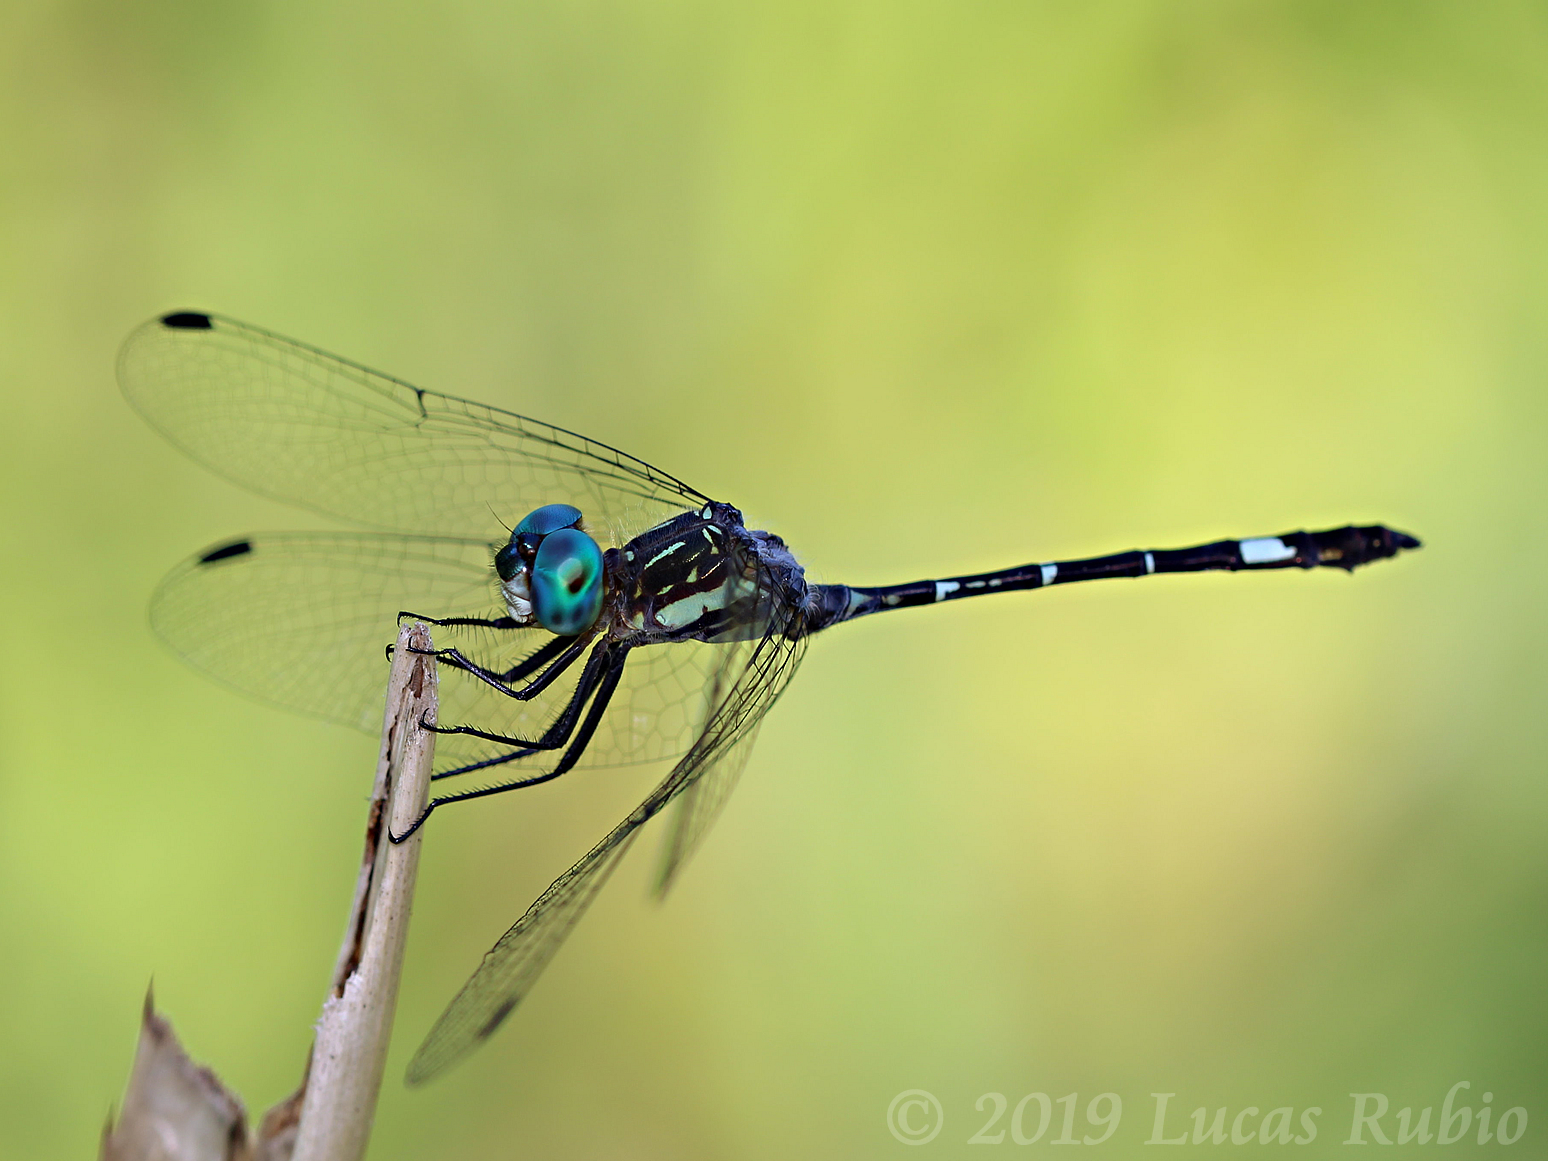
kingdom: Animalia
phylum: Arthropoda
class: Insecta
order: Odonata
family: Libellulidae
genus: Micrathyria
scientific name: Micrathyria hypodidyma
